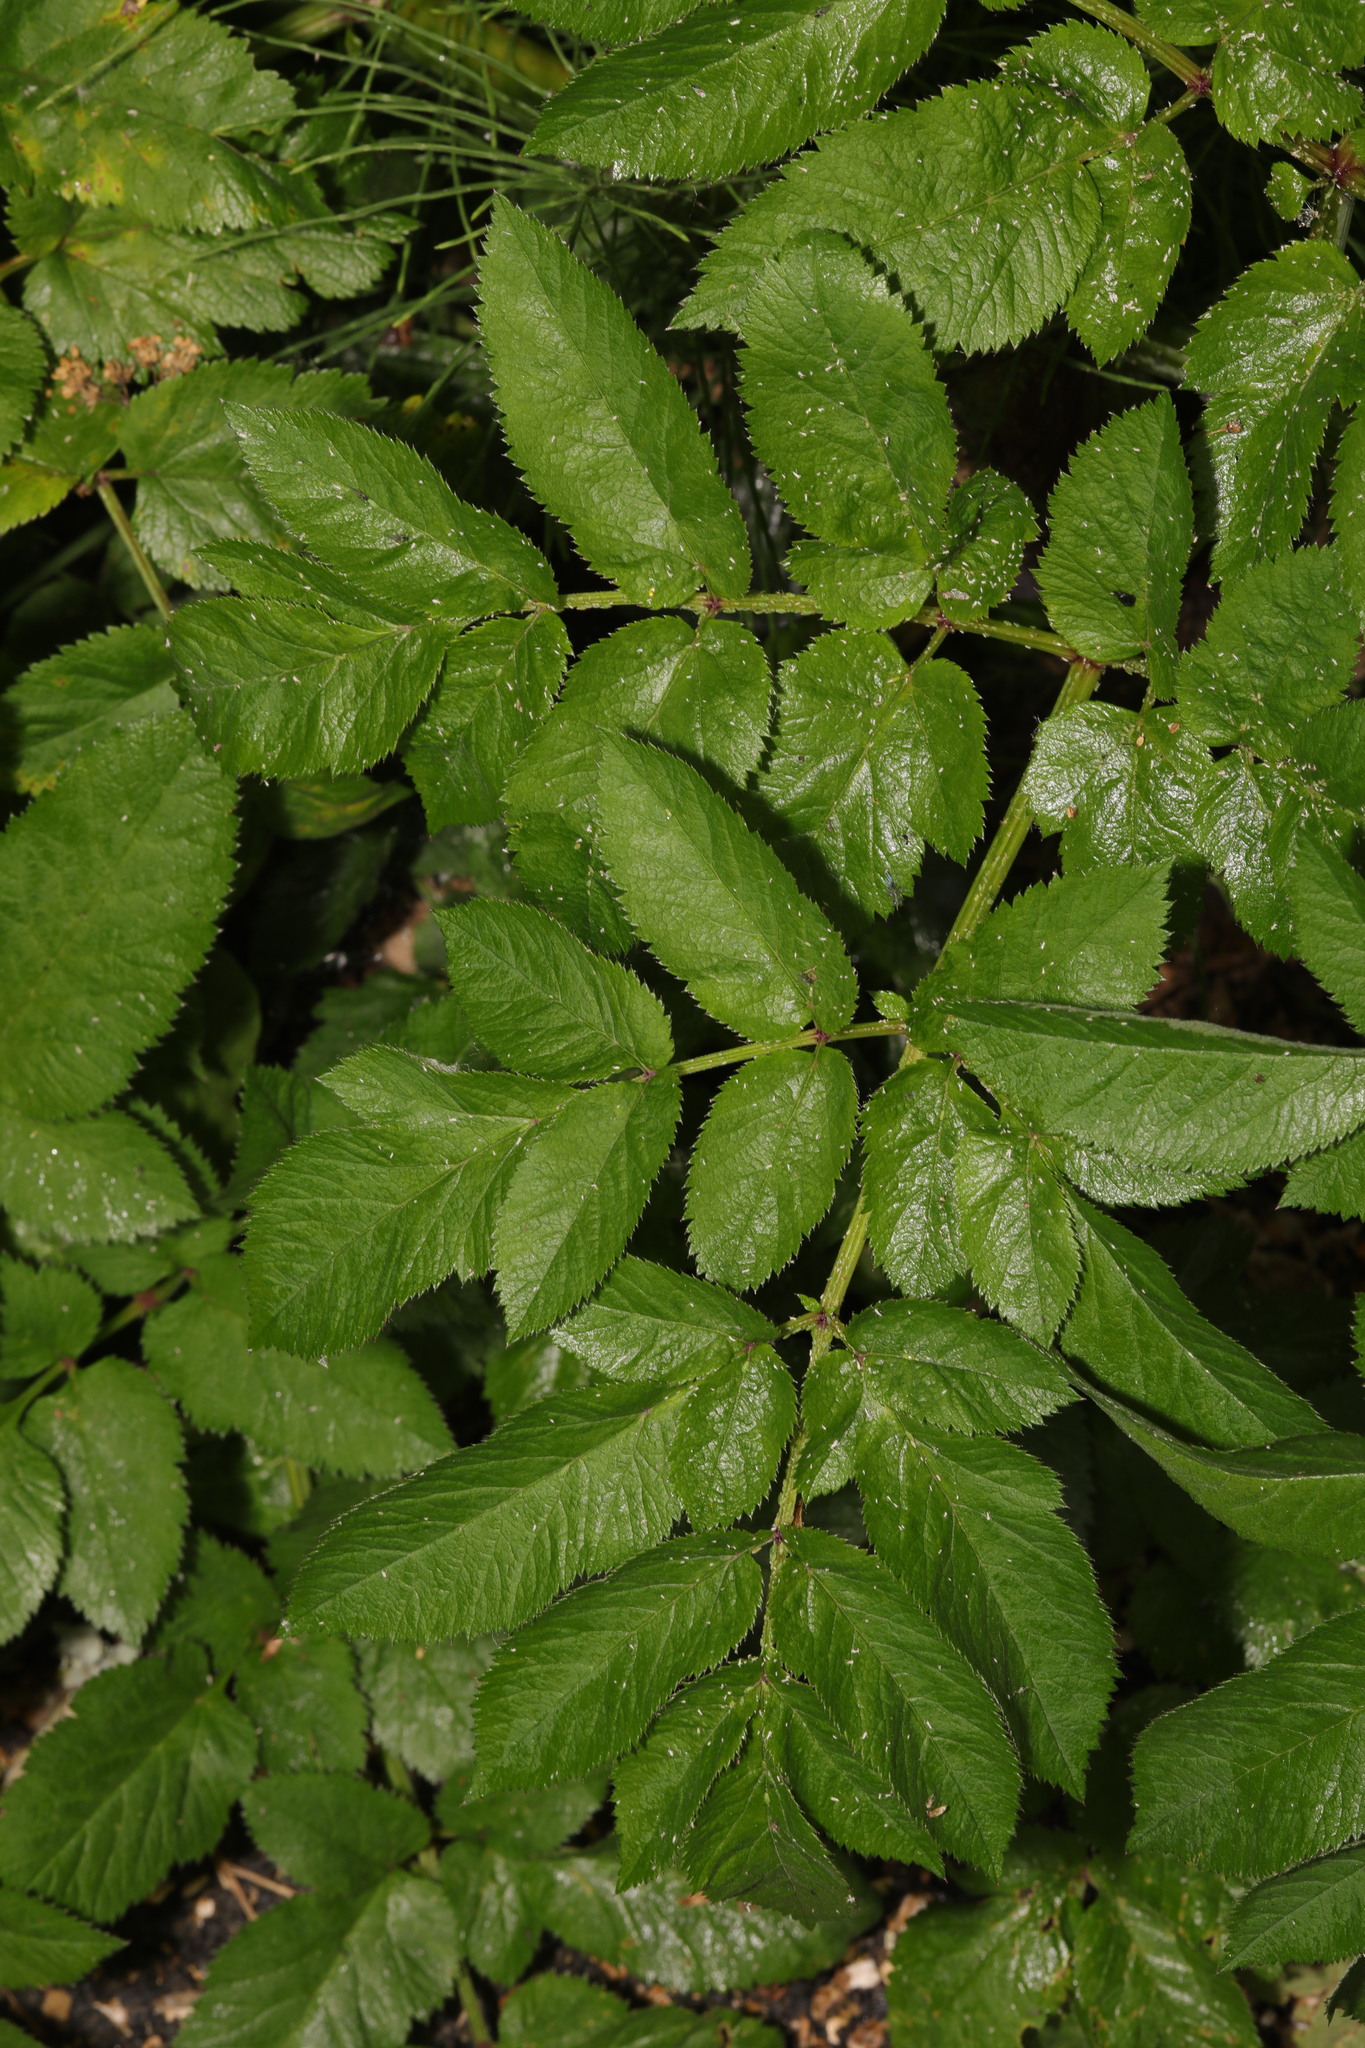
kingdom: Plantae
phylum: Tracheophyta
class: Magnoliopsida
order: Apiales
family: Apiaceae
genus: Angelica
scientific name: Angelica sylvestris
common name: Wild angelica
